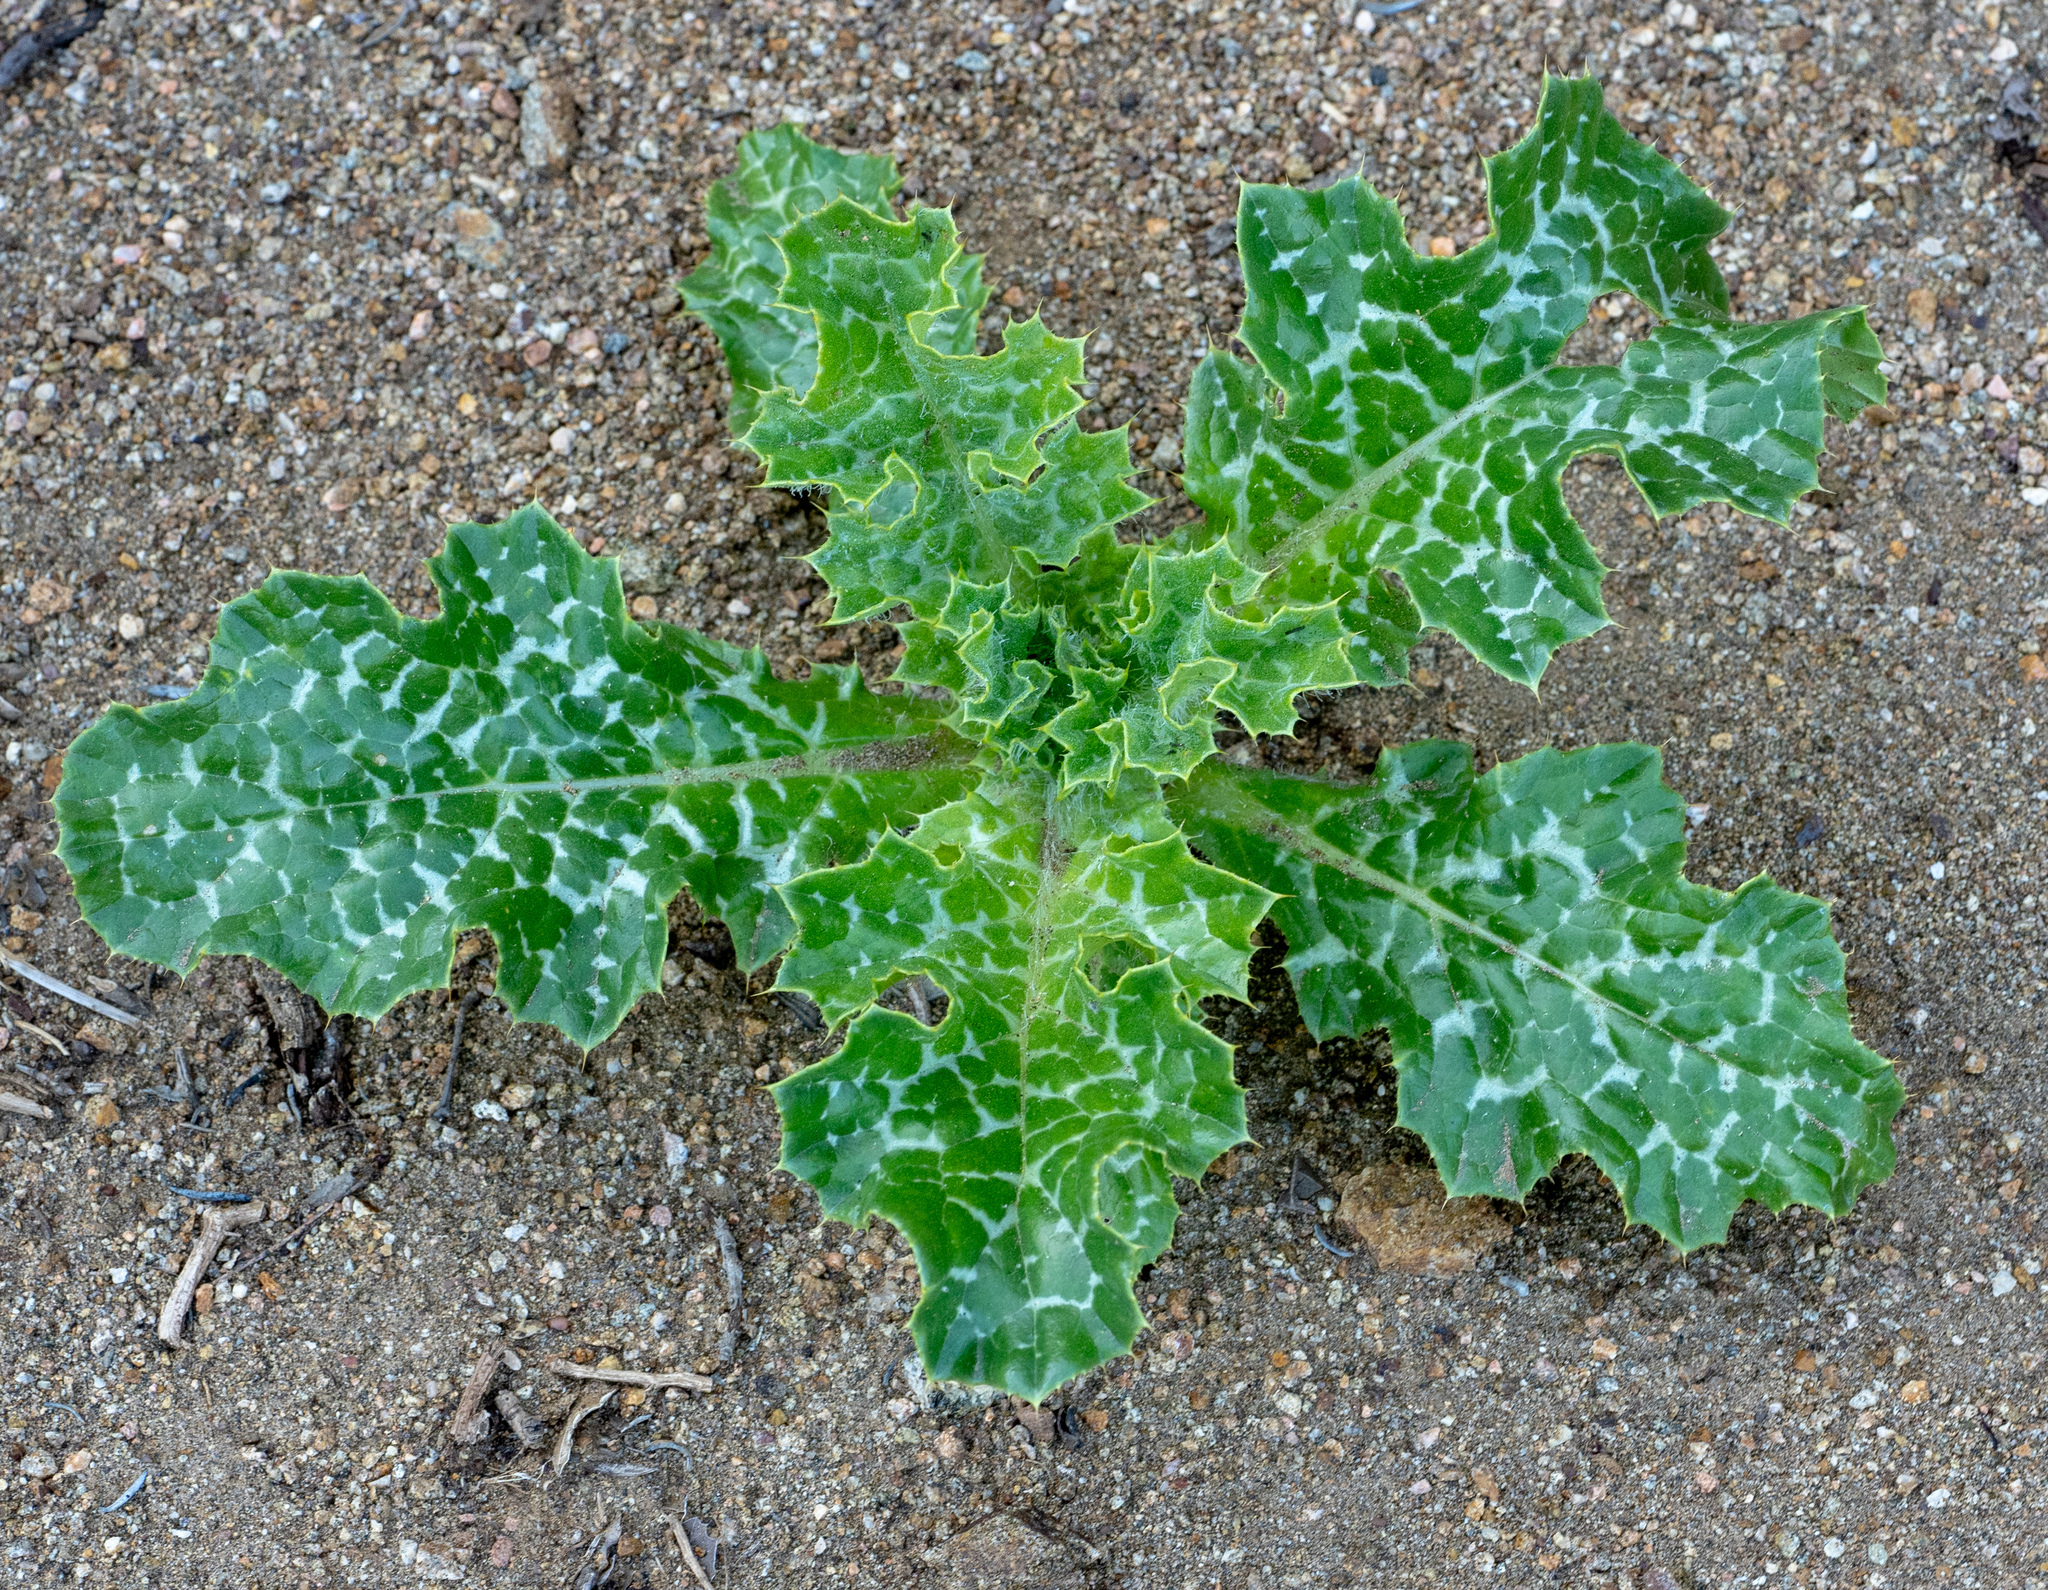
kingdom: Plantae
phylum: Tracheophyta
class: Magnoliopsida
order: Asterales
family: Asteraceae
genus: Silybum
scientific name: Silybum marianum
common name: Milk thistle
